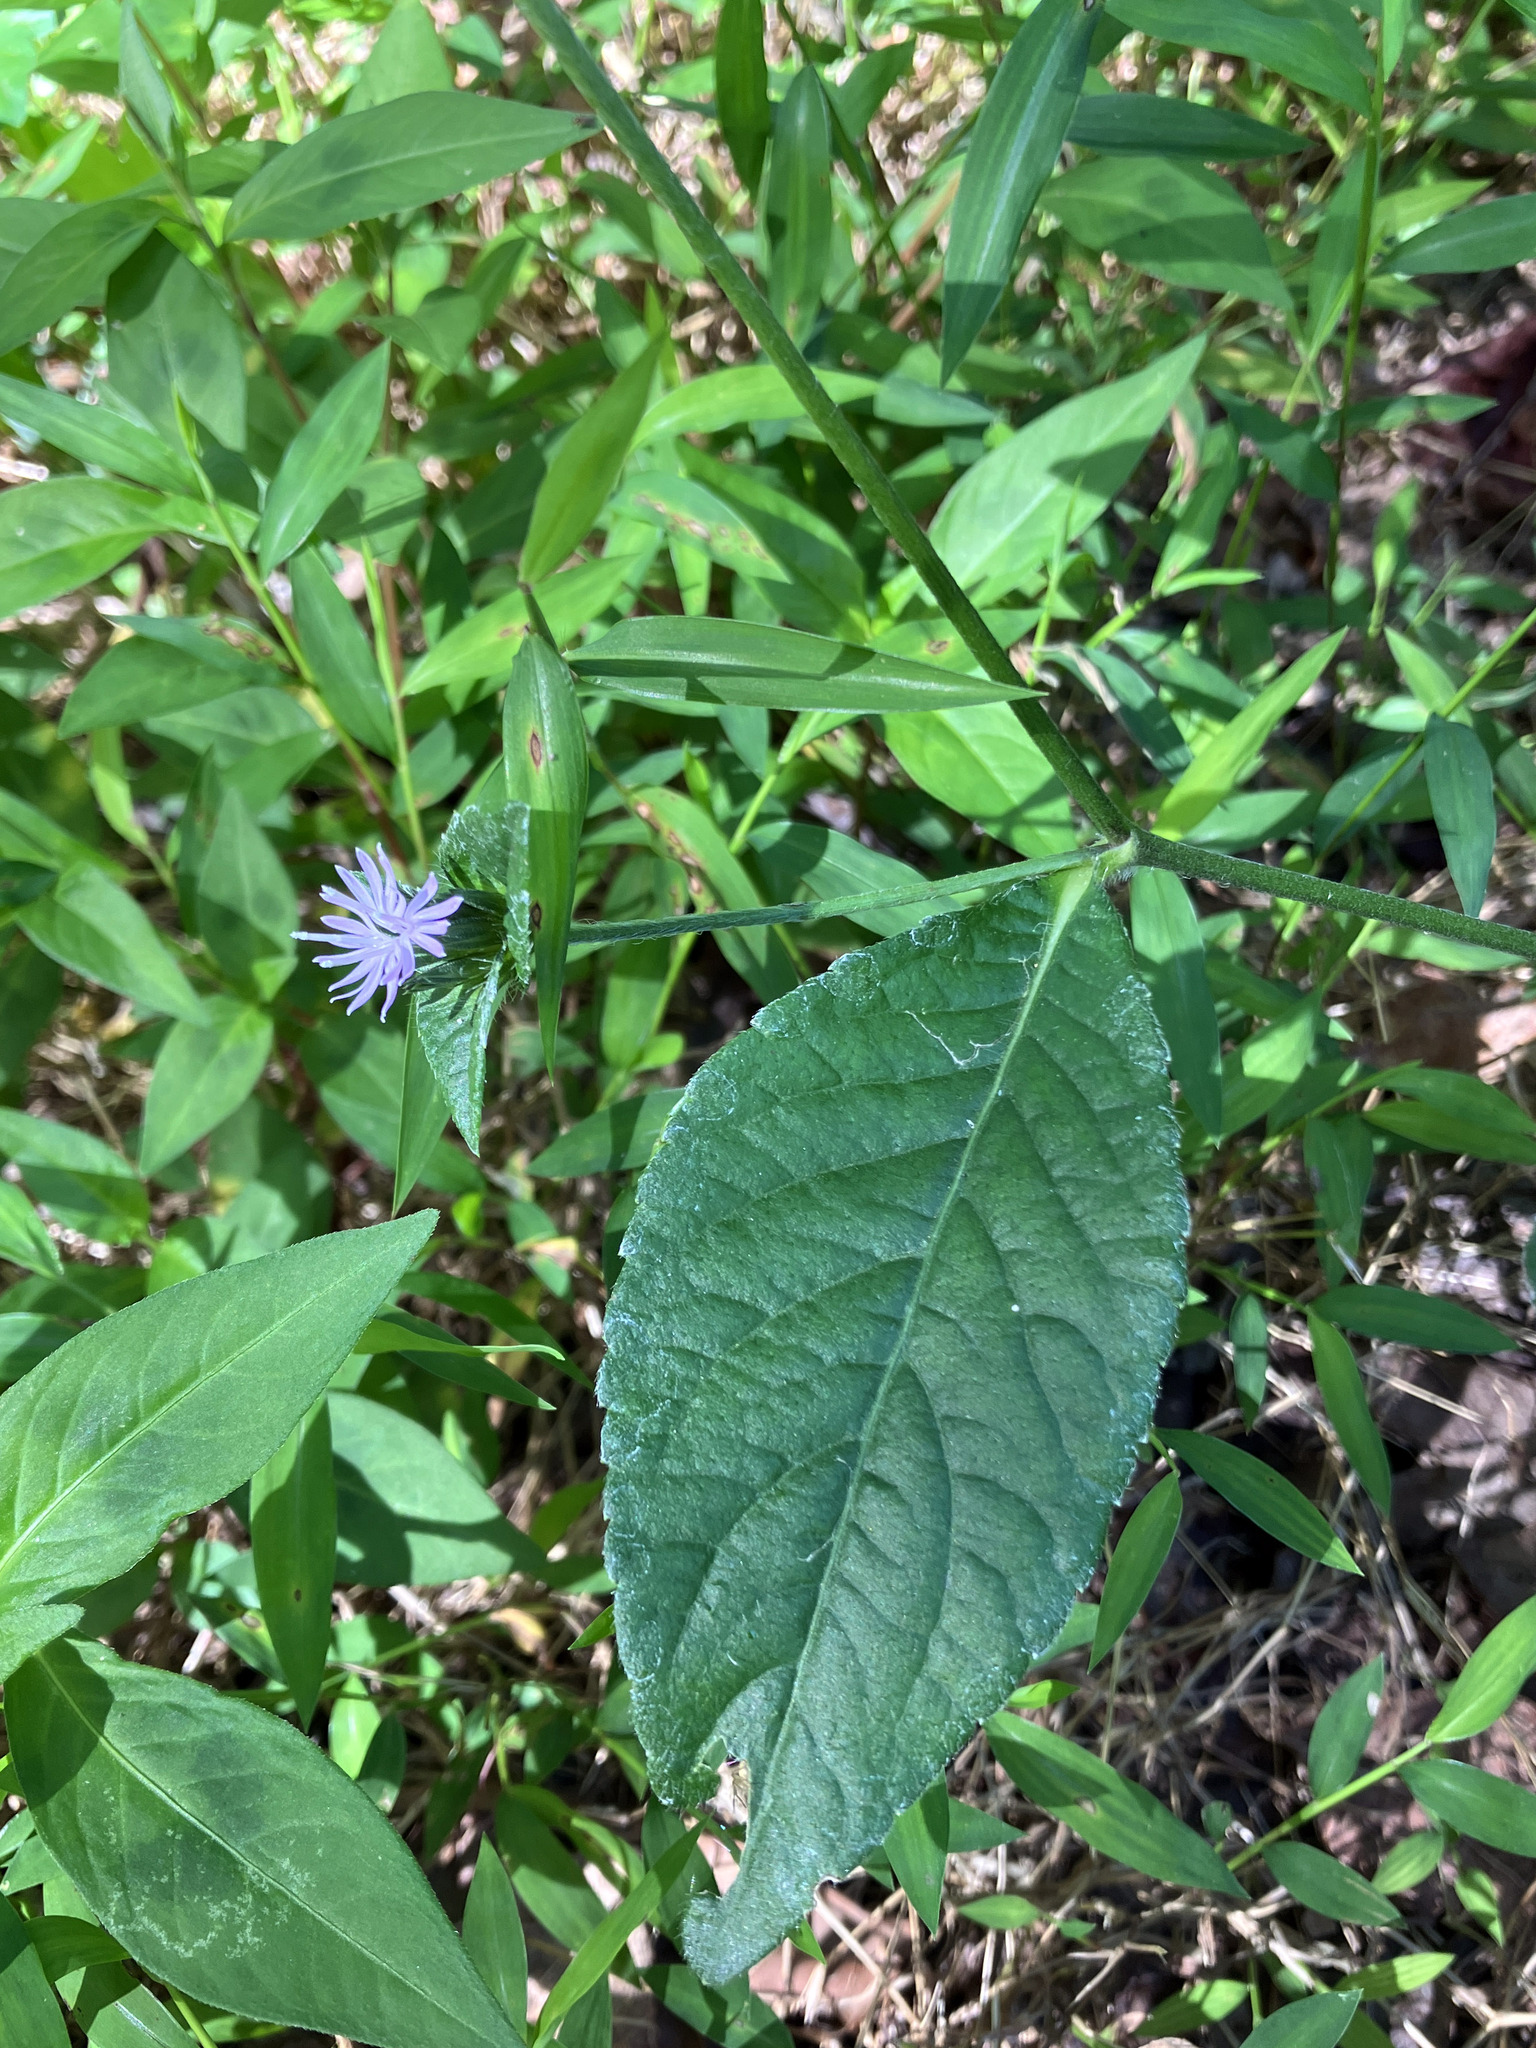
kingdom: Plantae
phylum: Tracheophyta
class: Magnoliopsida
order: Asterales
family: Asteraceae
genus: Elephantopus
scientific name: Elephantopus carolinianus
